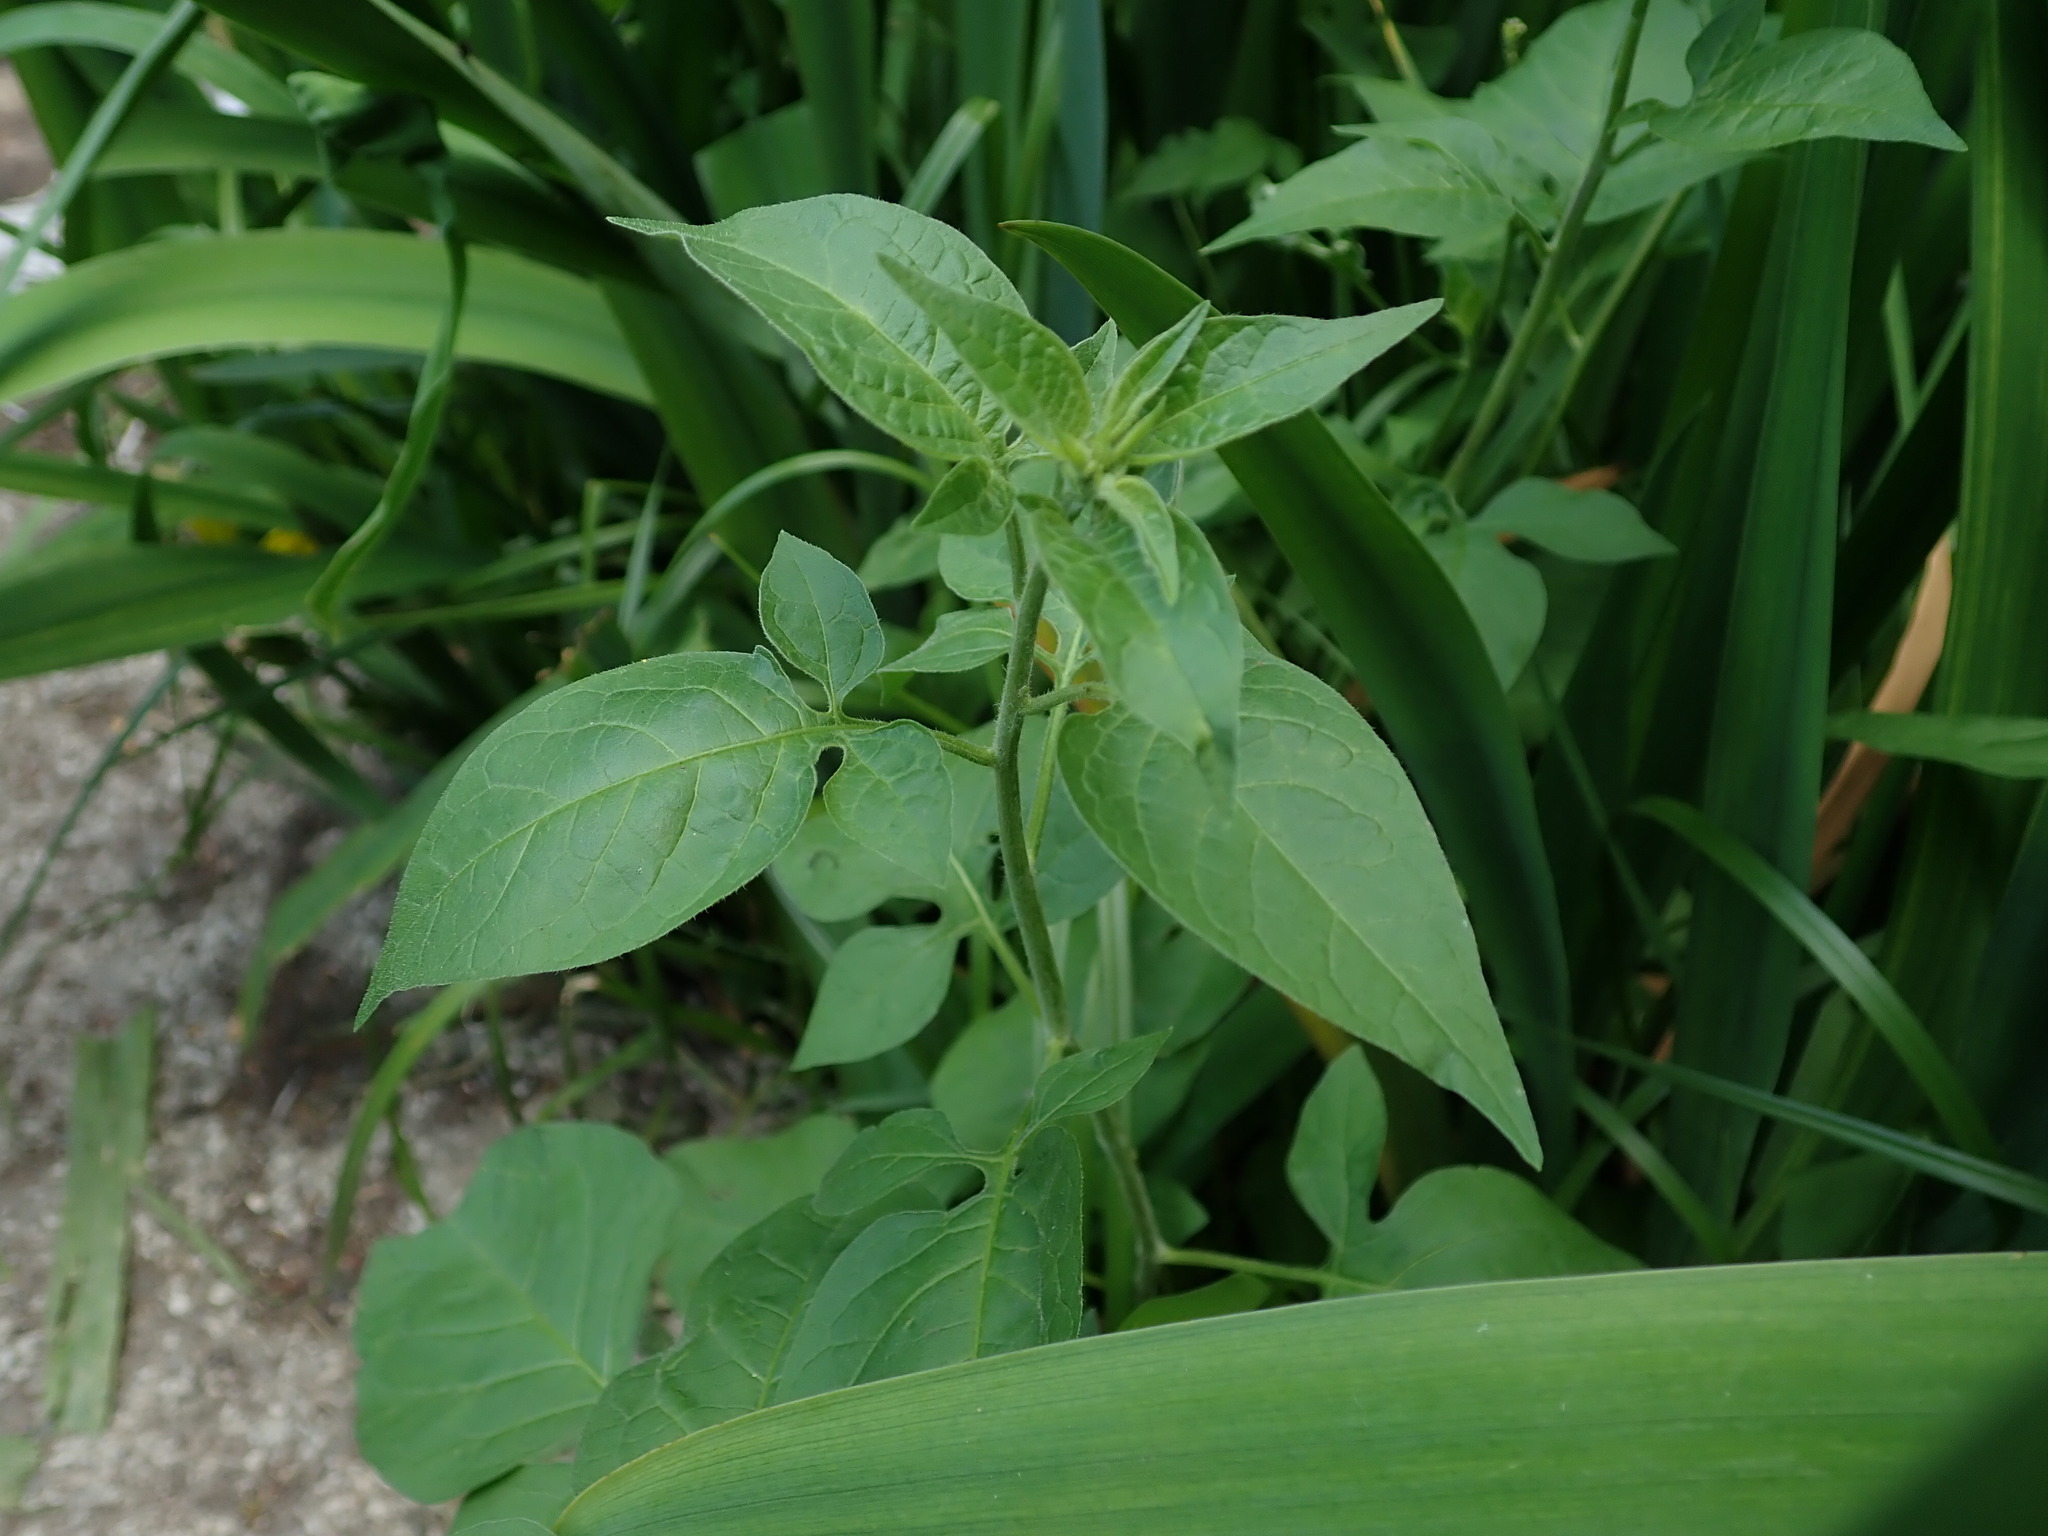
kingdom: Plantae
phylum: Tracheophyta
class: Magnoliopsida
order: Solanales
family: Solanaceae
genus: Solanum
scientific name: Solanum dulcamara
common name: Climbing nightshade
